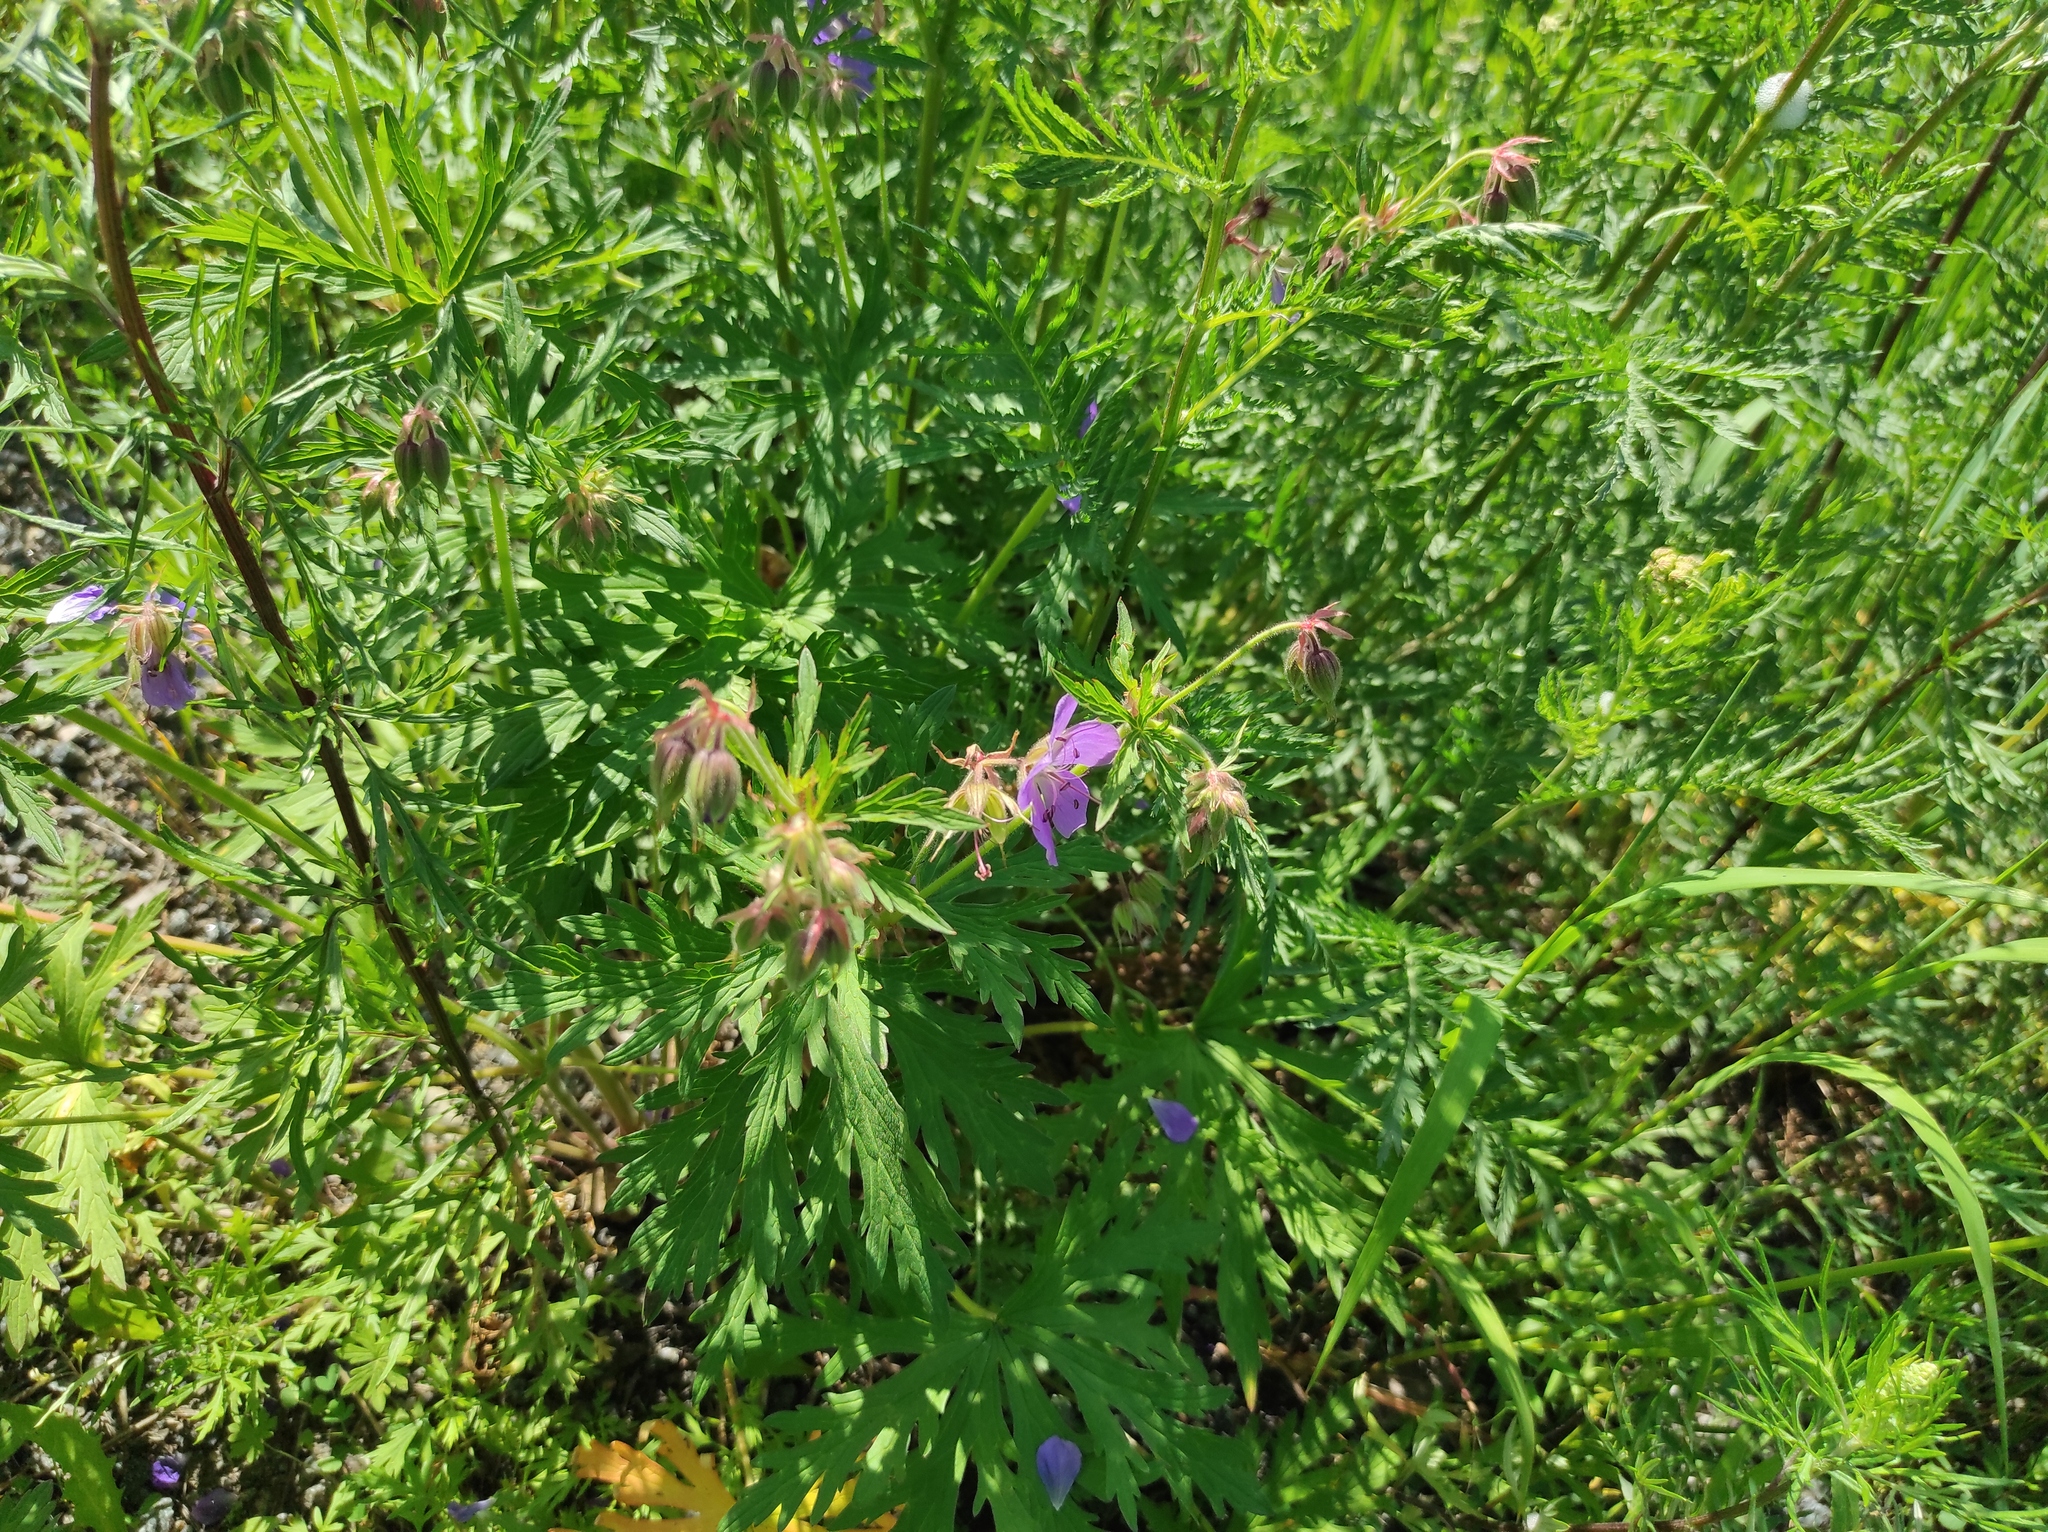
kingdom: Plantae
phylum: Tracheophyta
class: Magnoliopsida
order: Geraniales
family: Geraniaceae
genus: Geranium
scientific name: Geranium pratense
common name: Meadow crane's-bill
